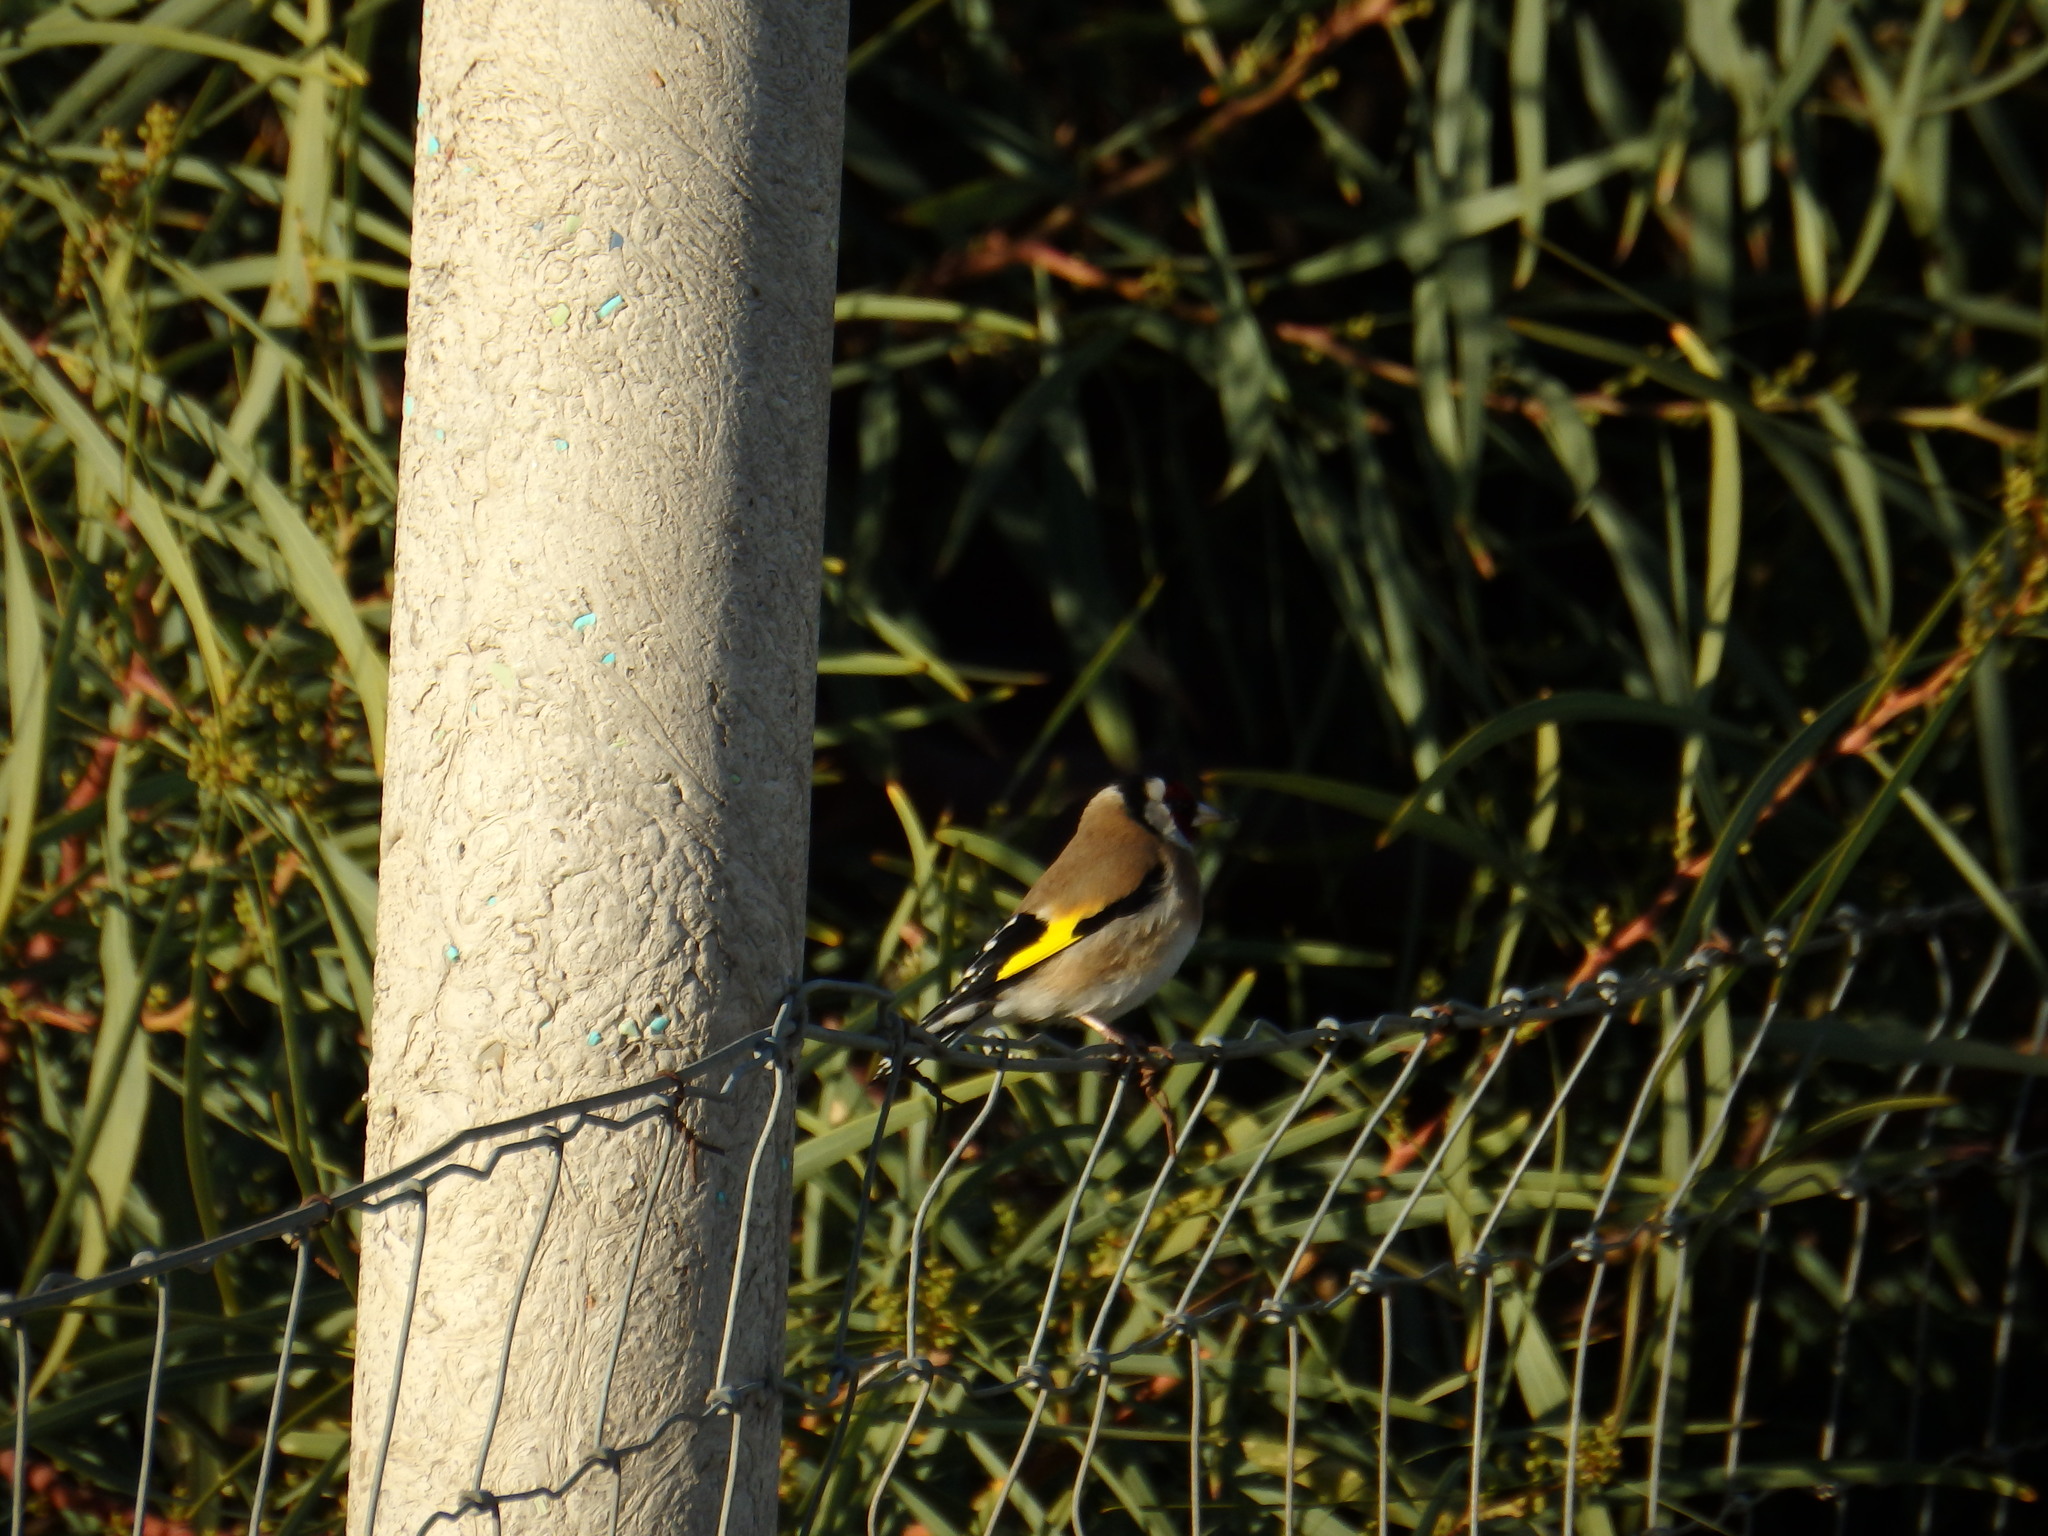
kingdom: Animalia
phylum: Chordata
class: Aves
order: Passeriformes
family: Fringillidae
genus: Carduelis
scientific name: Carduelis carduelis
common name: European goldfinch
